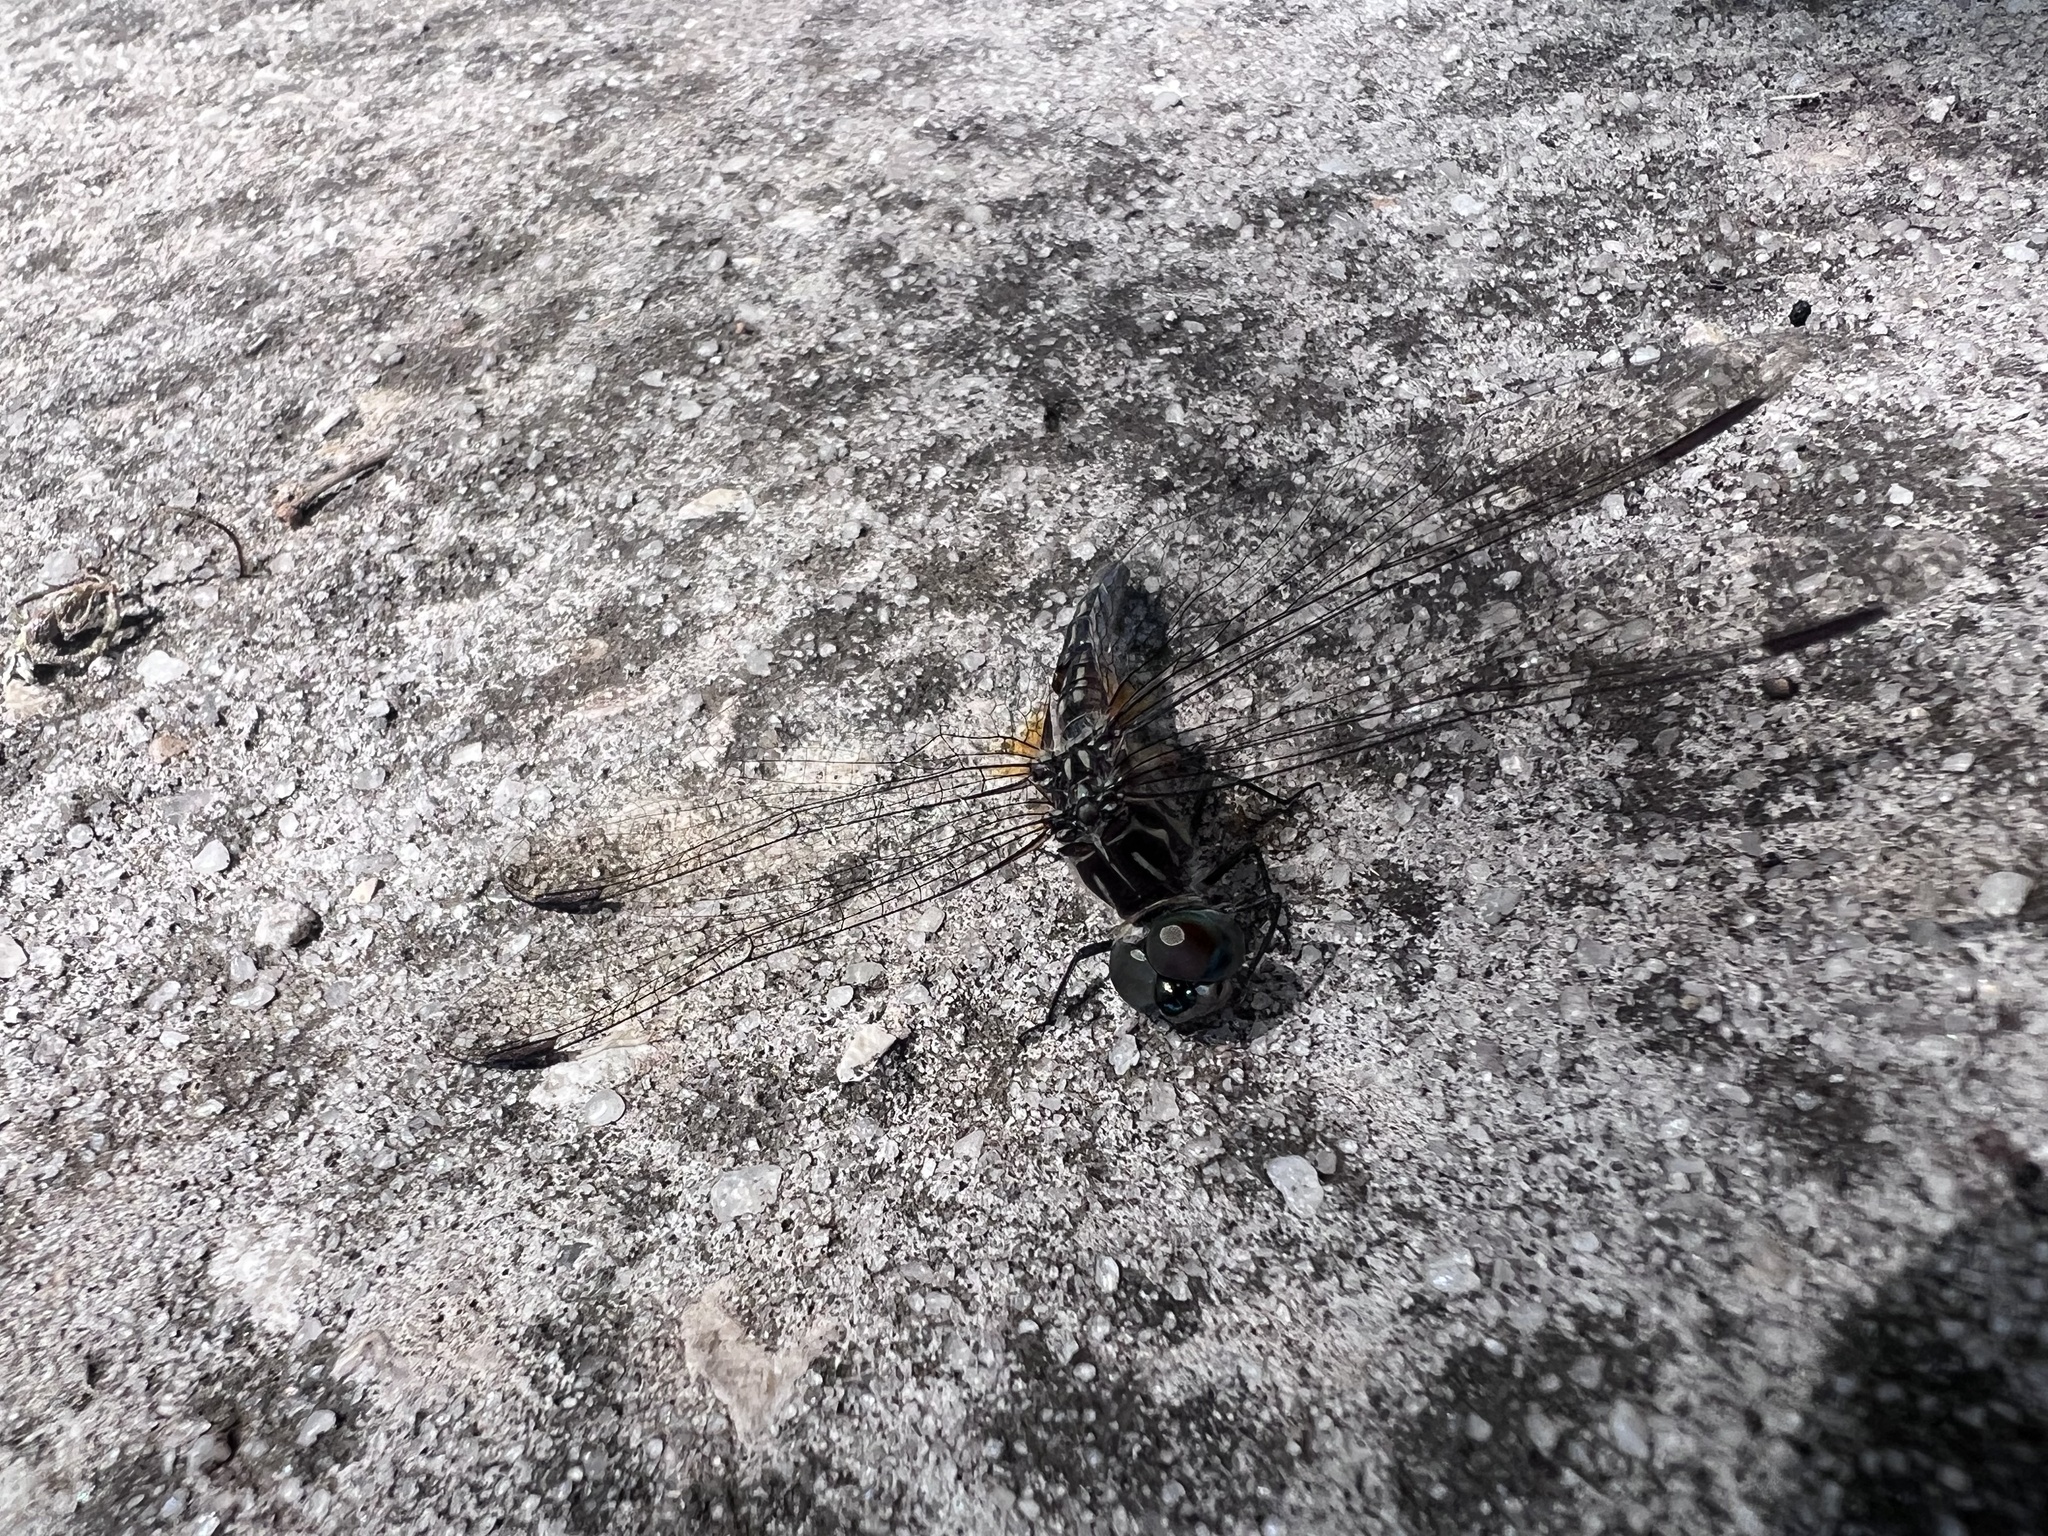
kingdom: Animalia
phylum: Arthropoda
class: Insecta
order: Odonata
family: Libellulidae
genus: Pachydiplax
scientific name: Pachydiplax longipennis
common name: Blue dasher
